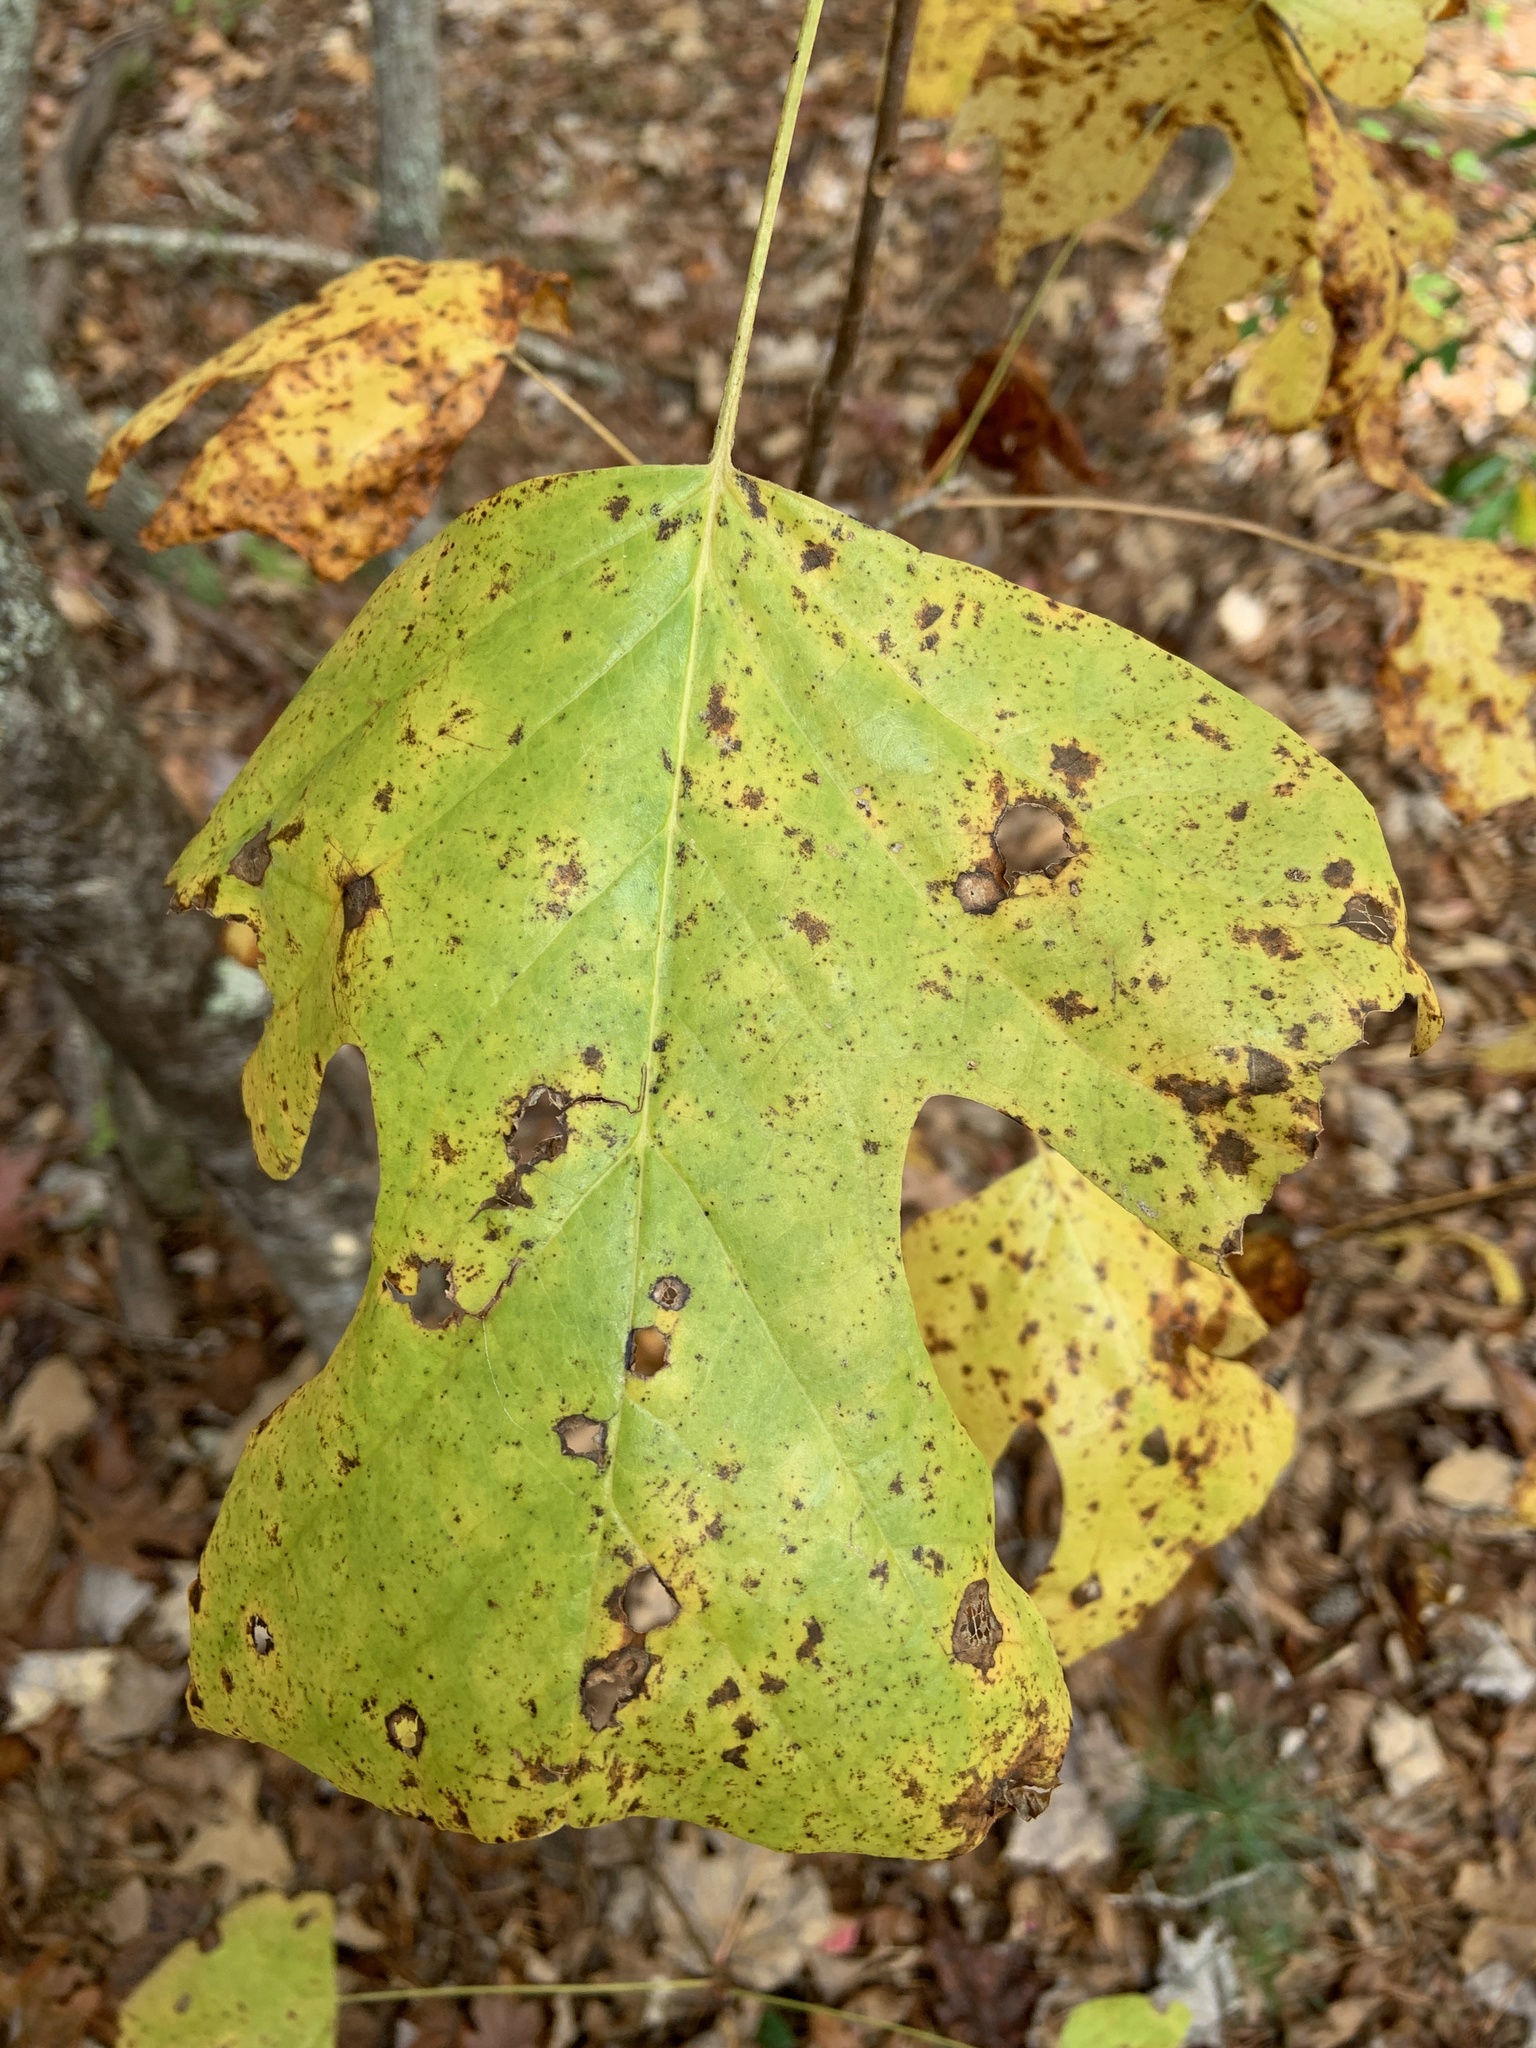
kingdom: Plantae
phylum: Tracheophyta
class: Magnoliopsida
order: Magnoliales
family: Magnoliaceae
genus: Liriodendron
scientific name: Liriodendron tulipifera
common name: Tulip tree
